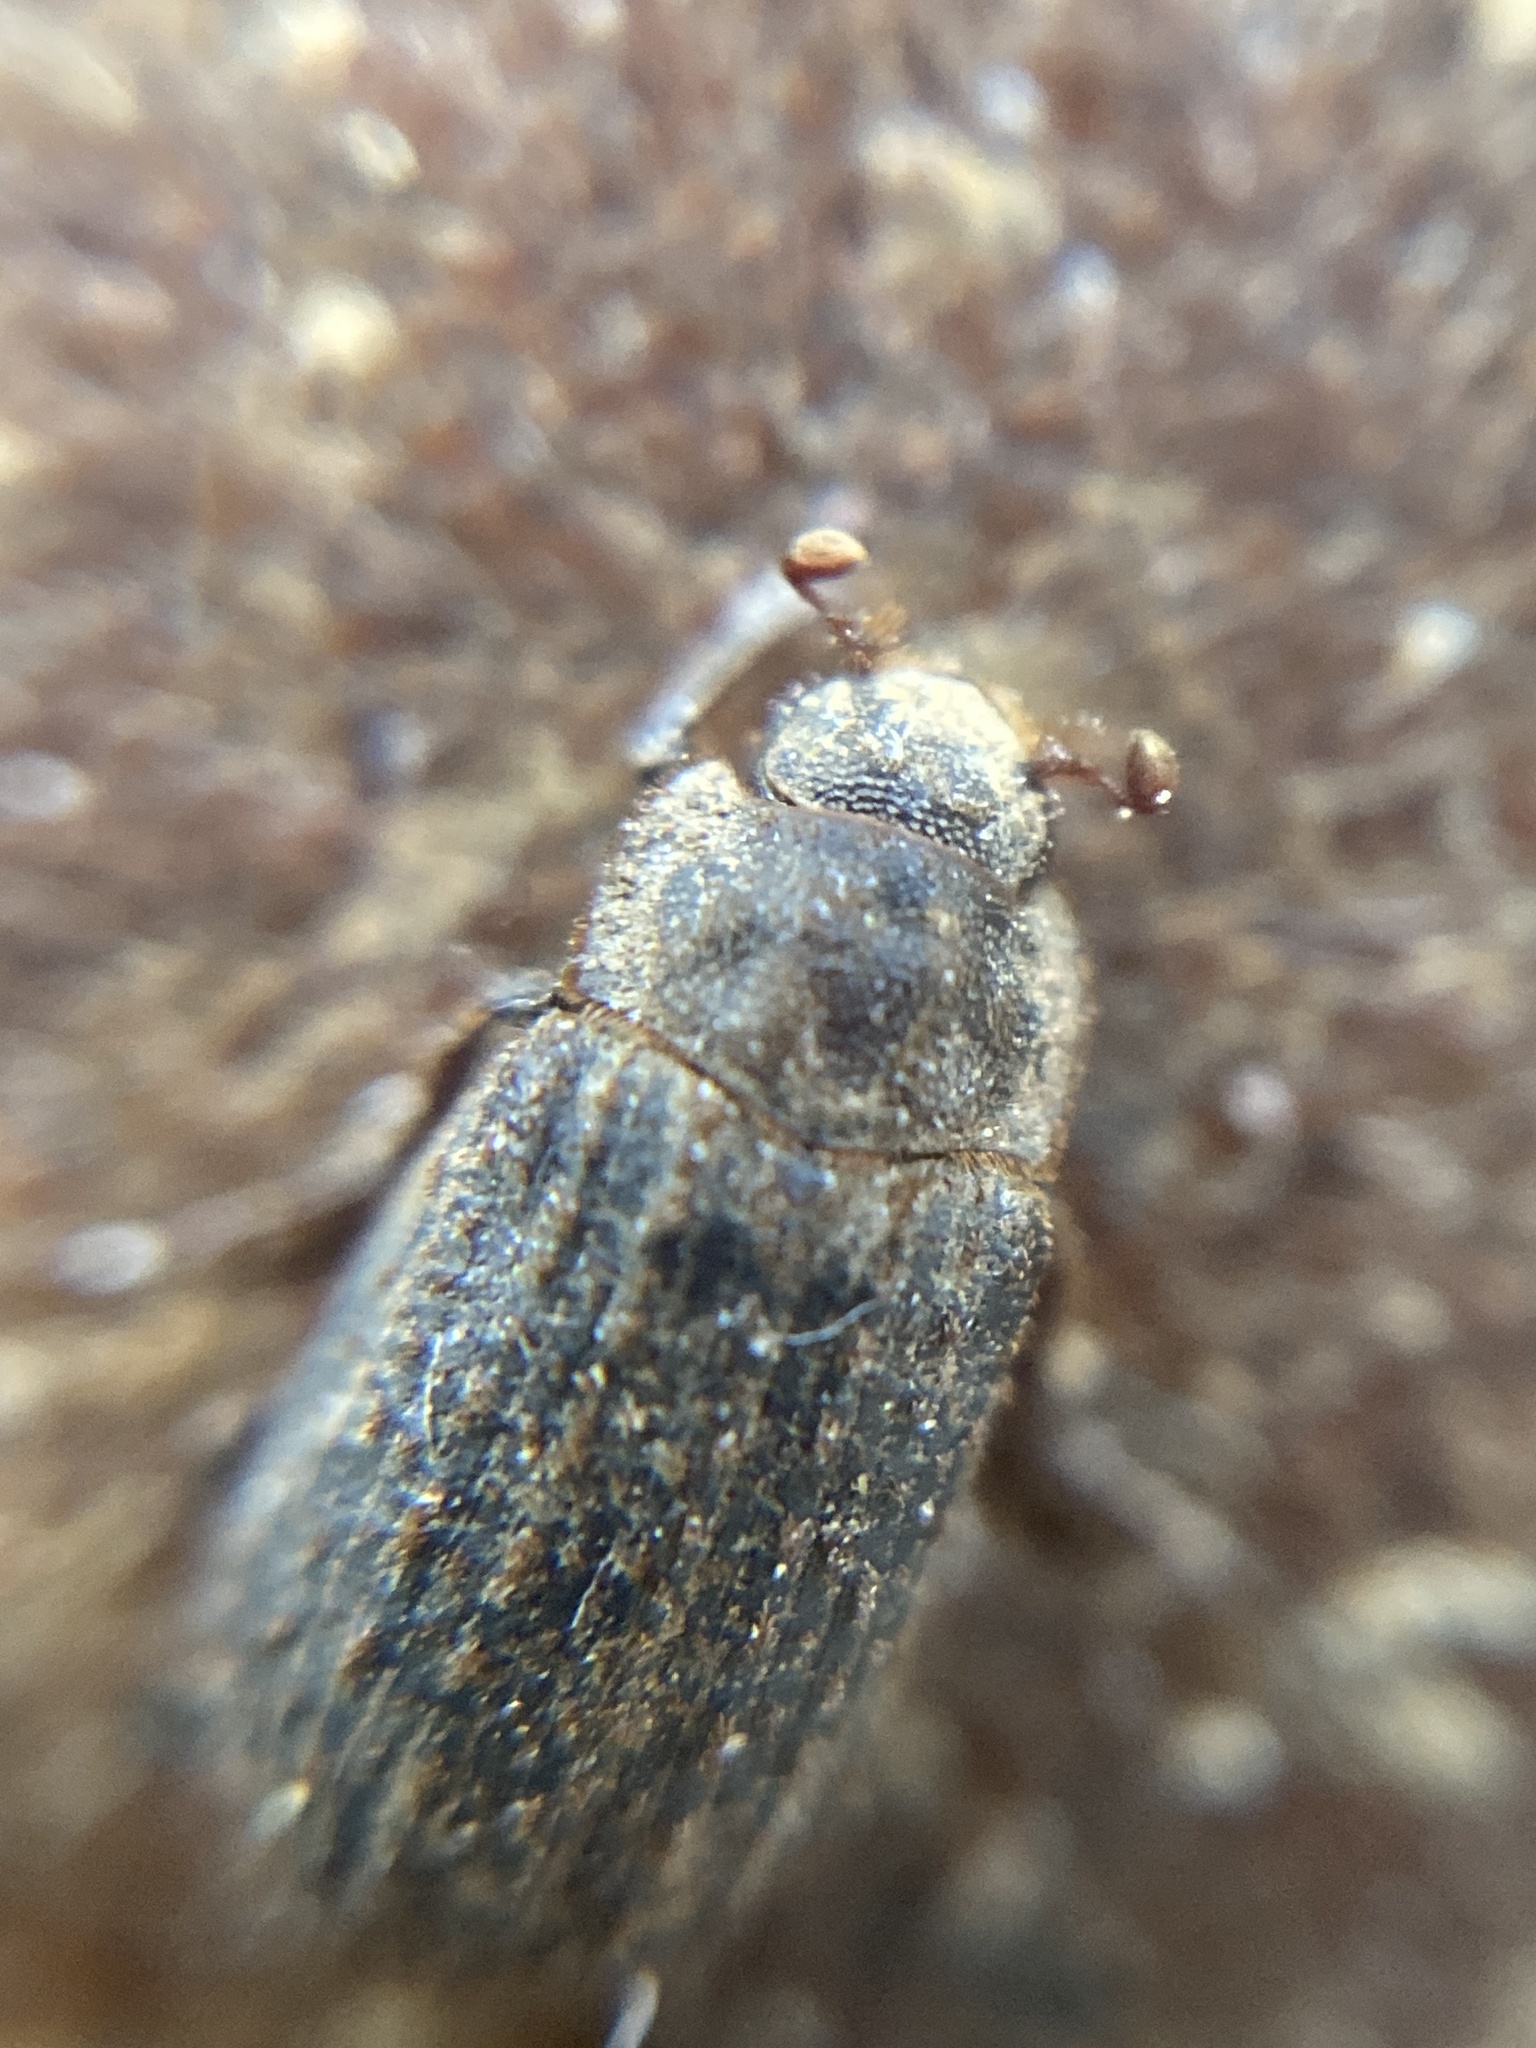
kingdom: Animalia
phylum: Arthropoda
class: Insecta
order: Coleoptera
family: Trogidae
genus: Trox
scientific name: Trox scaber
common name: Hide beetle
